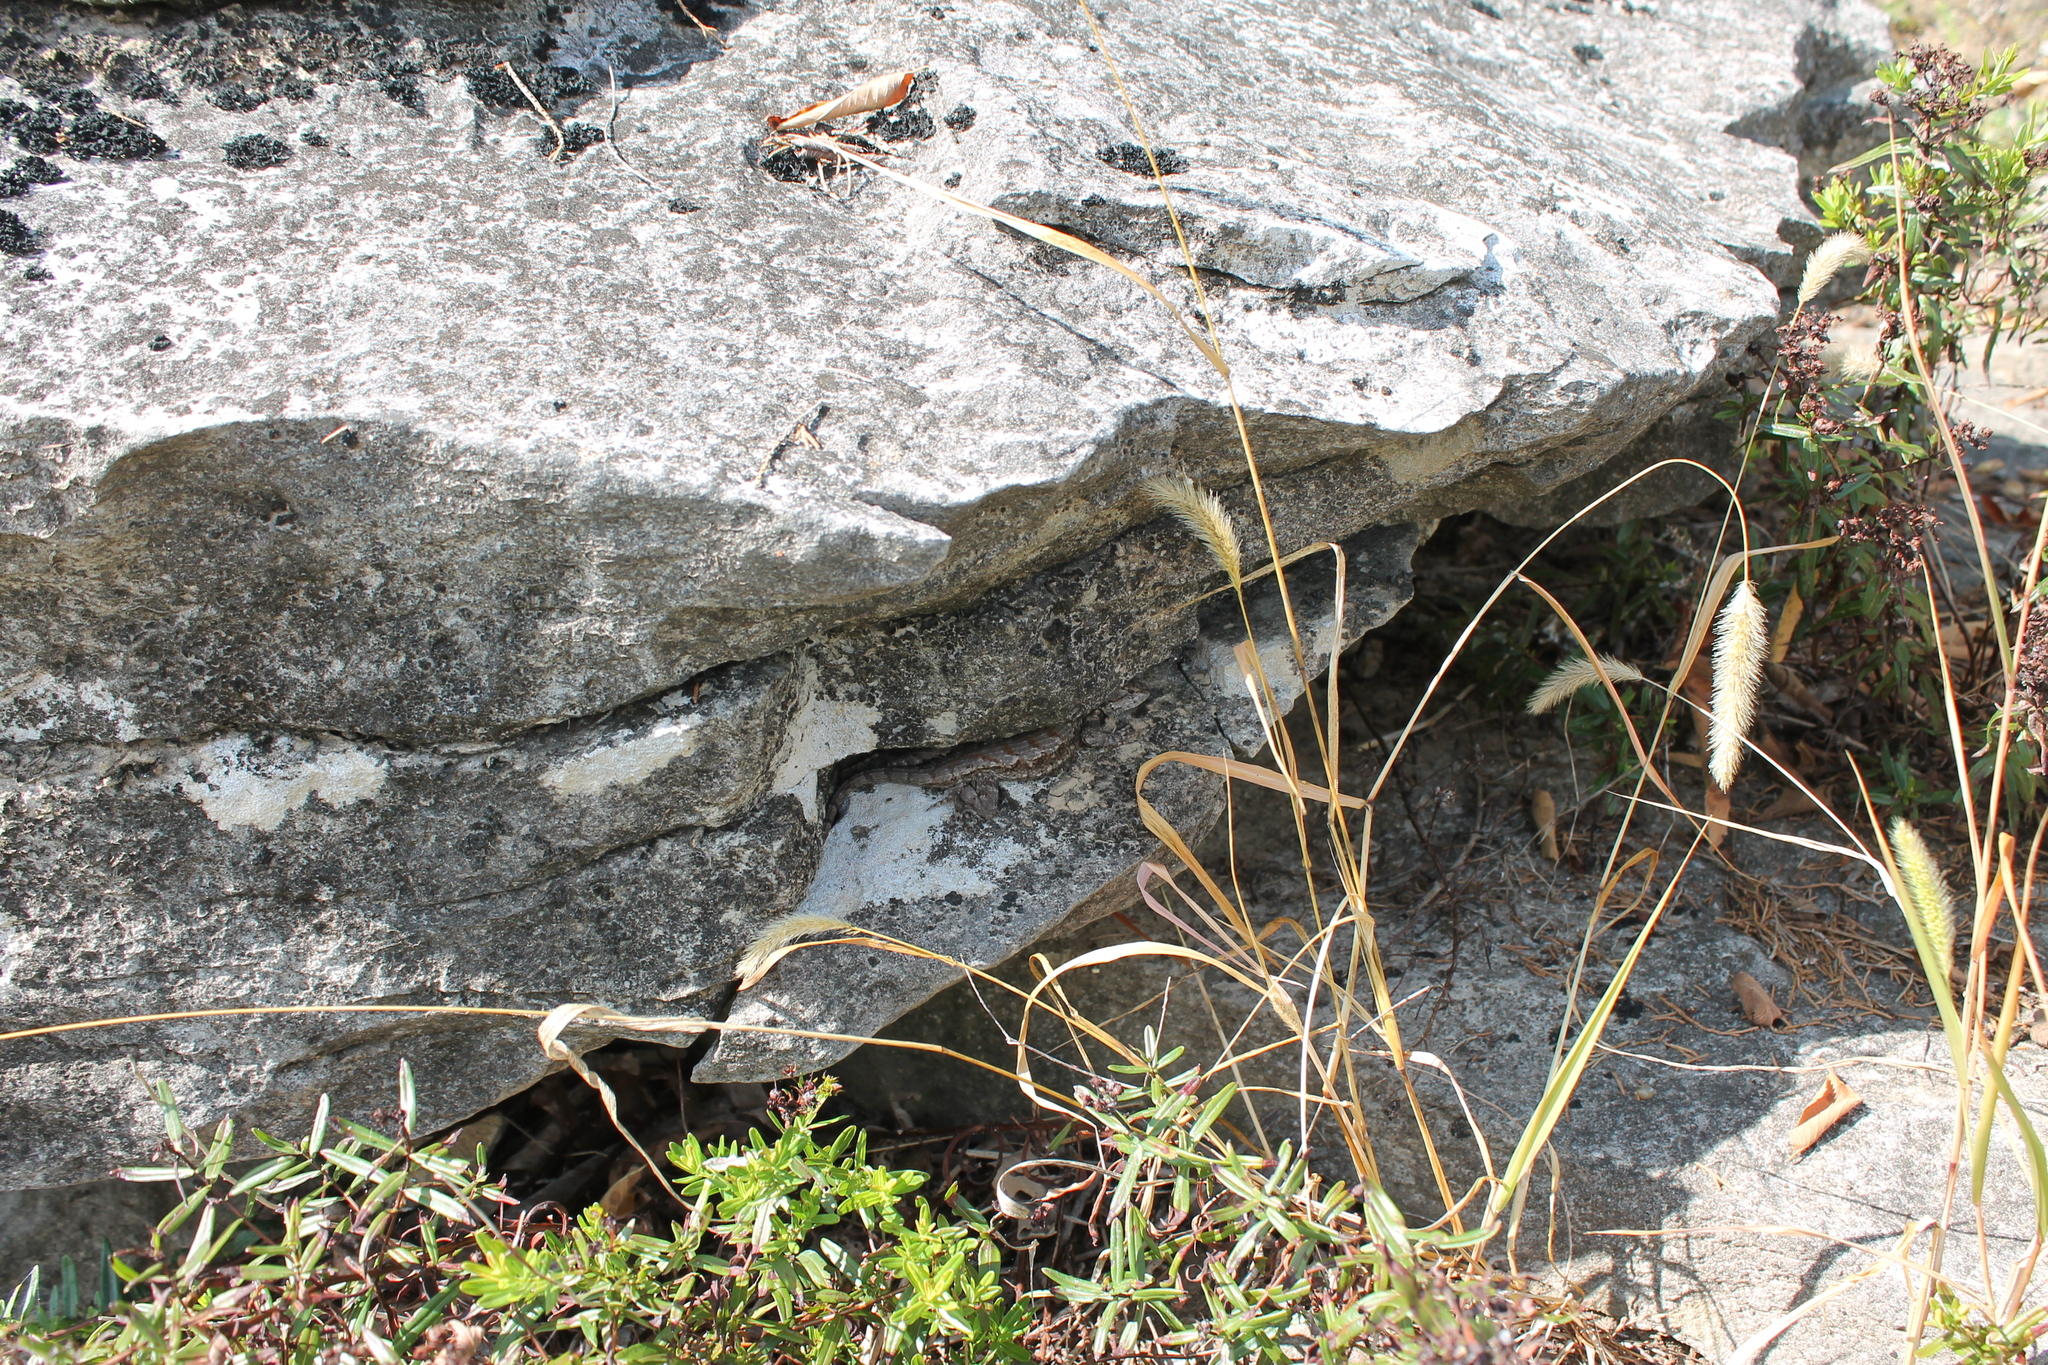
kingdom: Animalia
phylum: Chordata
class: Squamata
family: Phrynosomatidae
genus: Sceloporus
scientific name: Sceloporus undulatus
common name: Eastern fence lizard
